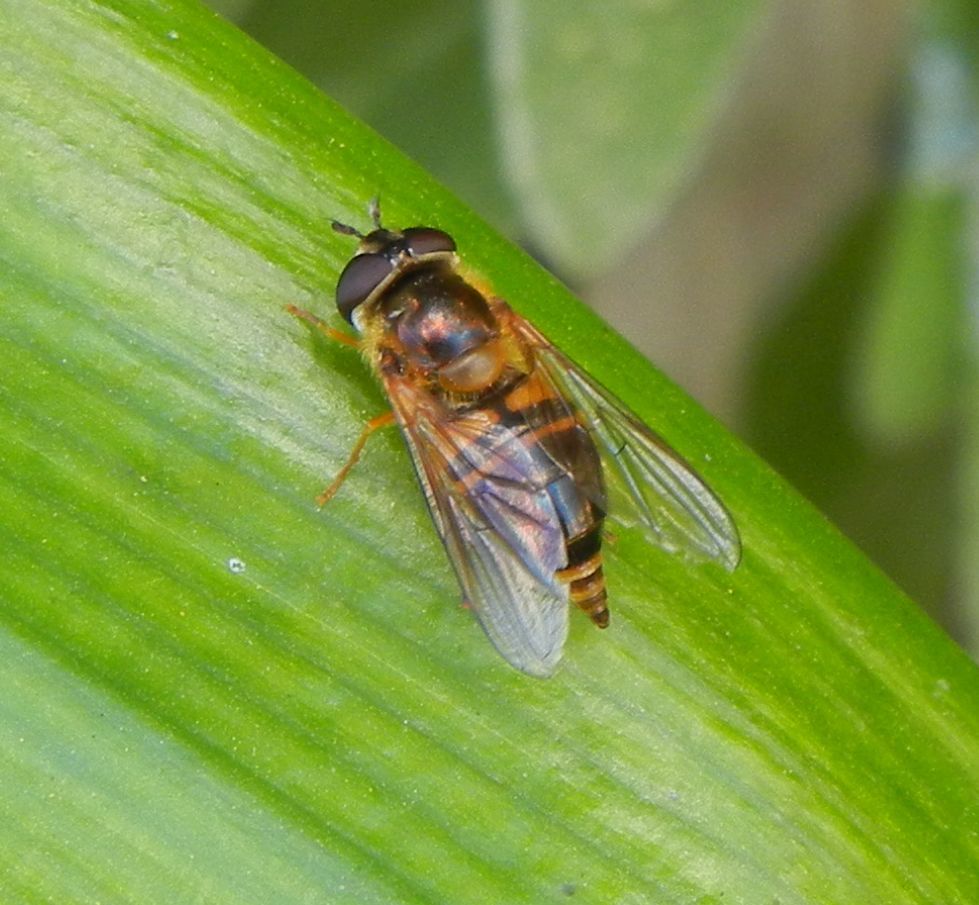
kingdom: Animalia
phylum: Arthropoda
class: Insecta
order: Diptera
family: Syrphidae
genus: Epistrophe
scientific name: Epistrophe eligans
